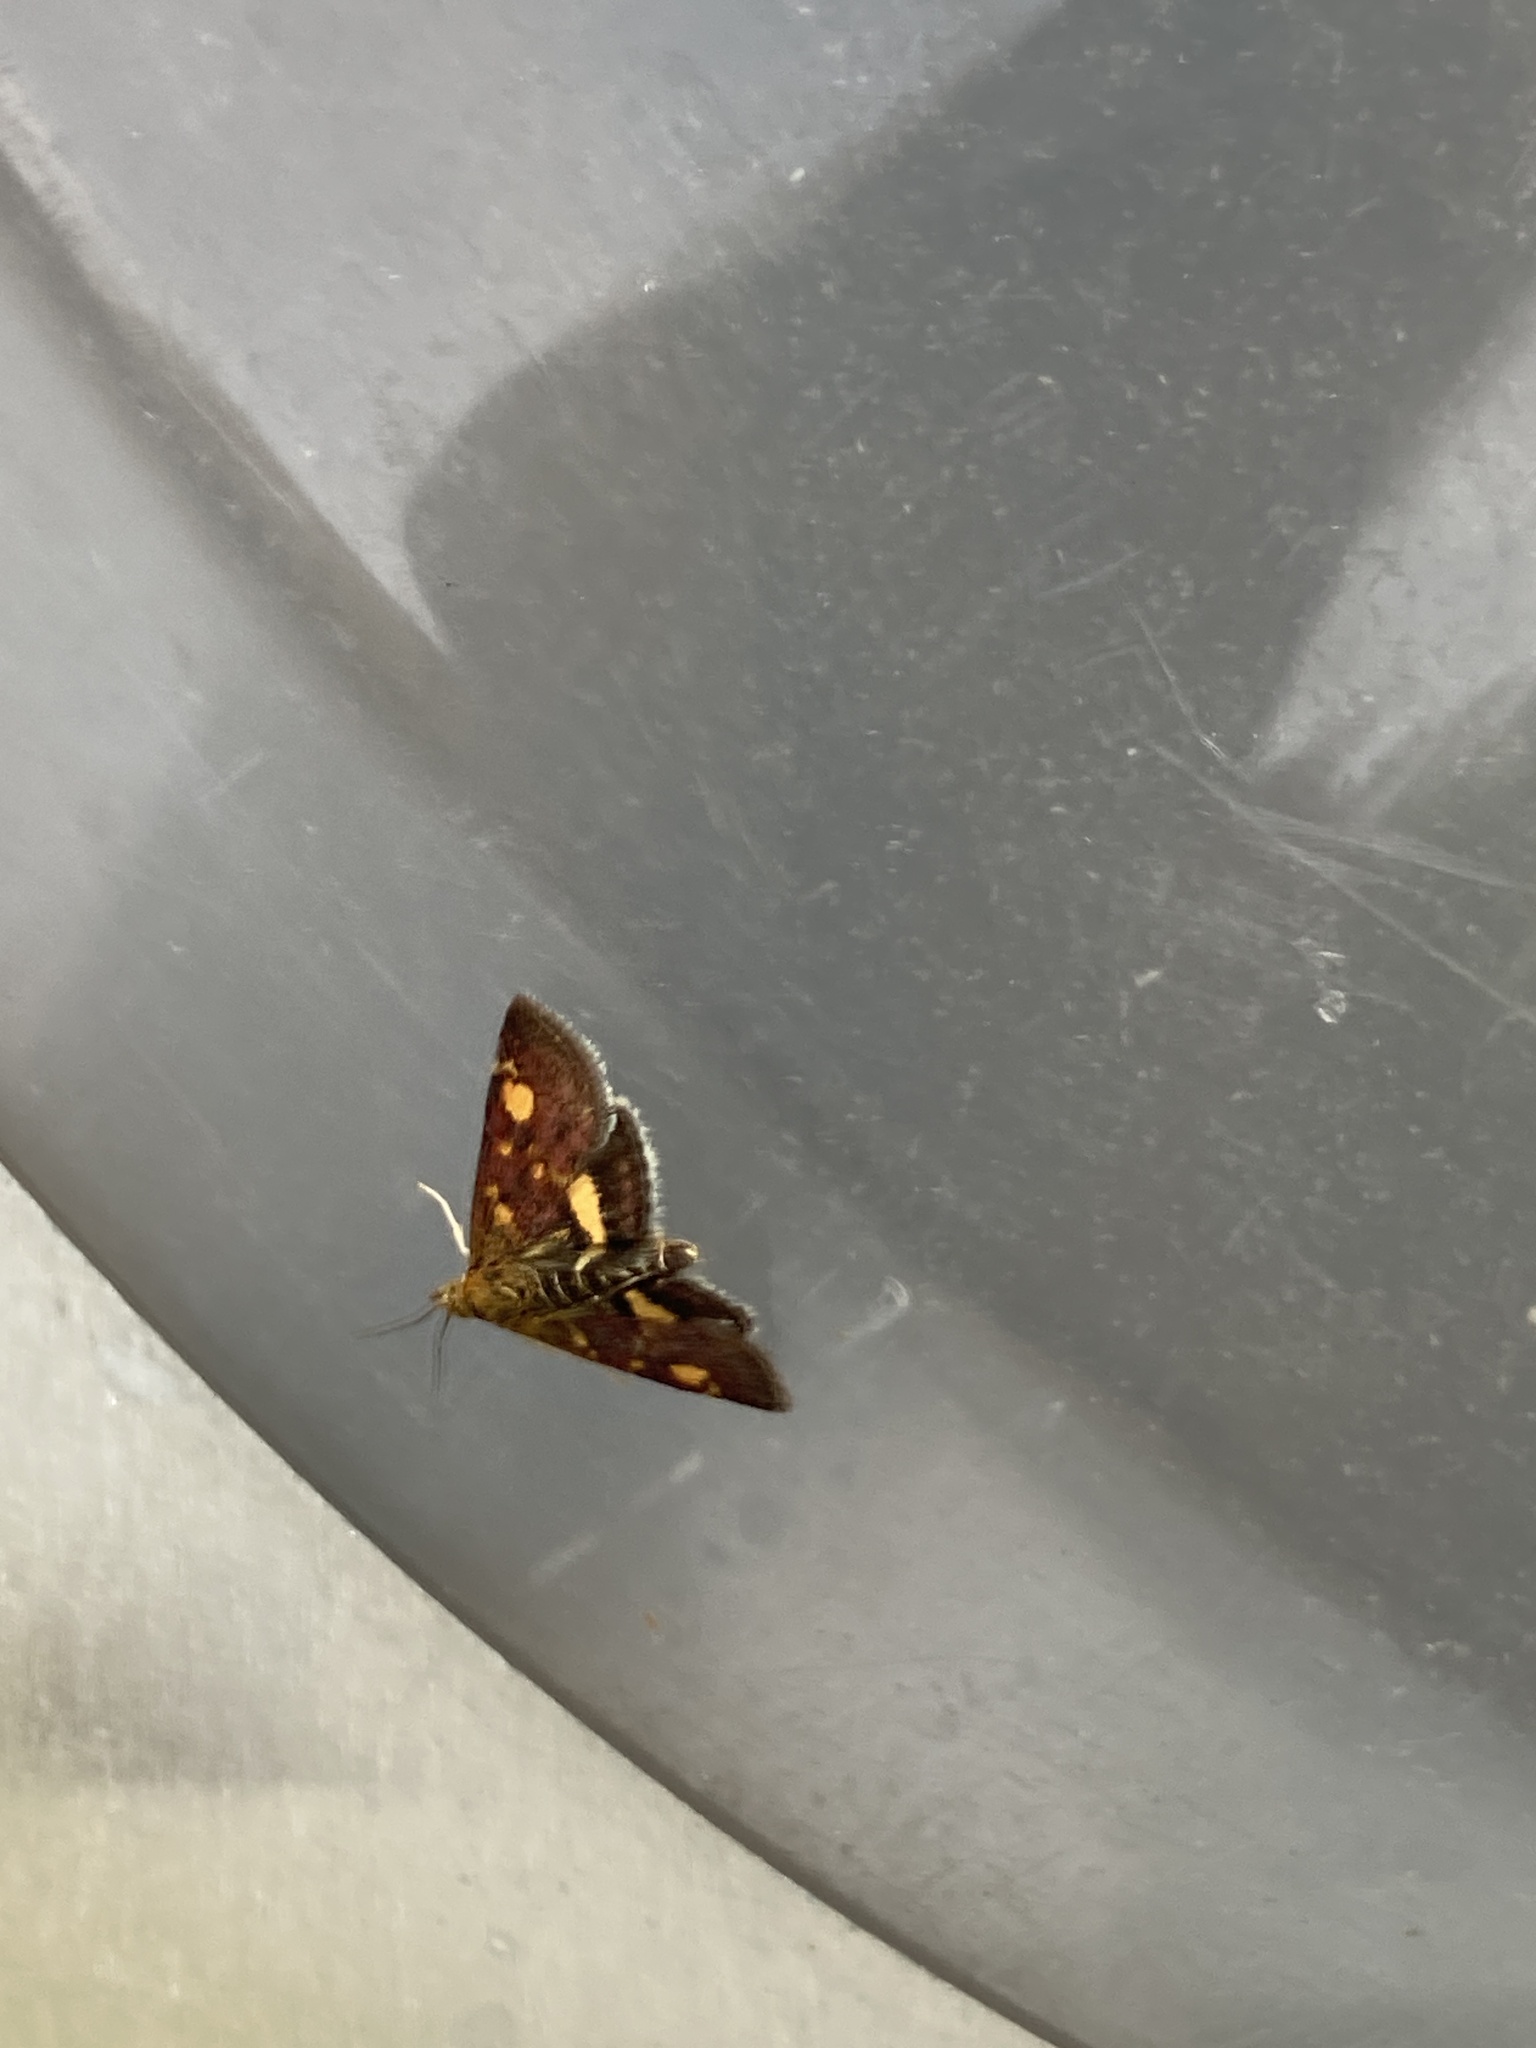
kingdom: Animalia
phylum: Arthropoda
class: Insecta
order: Lepidoptera
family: Crambidae
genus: Pyrausta
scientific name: Pyrausta aurata
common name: Small purple & gold
